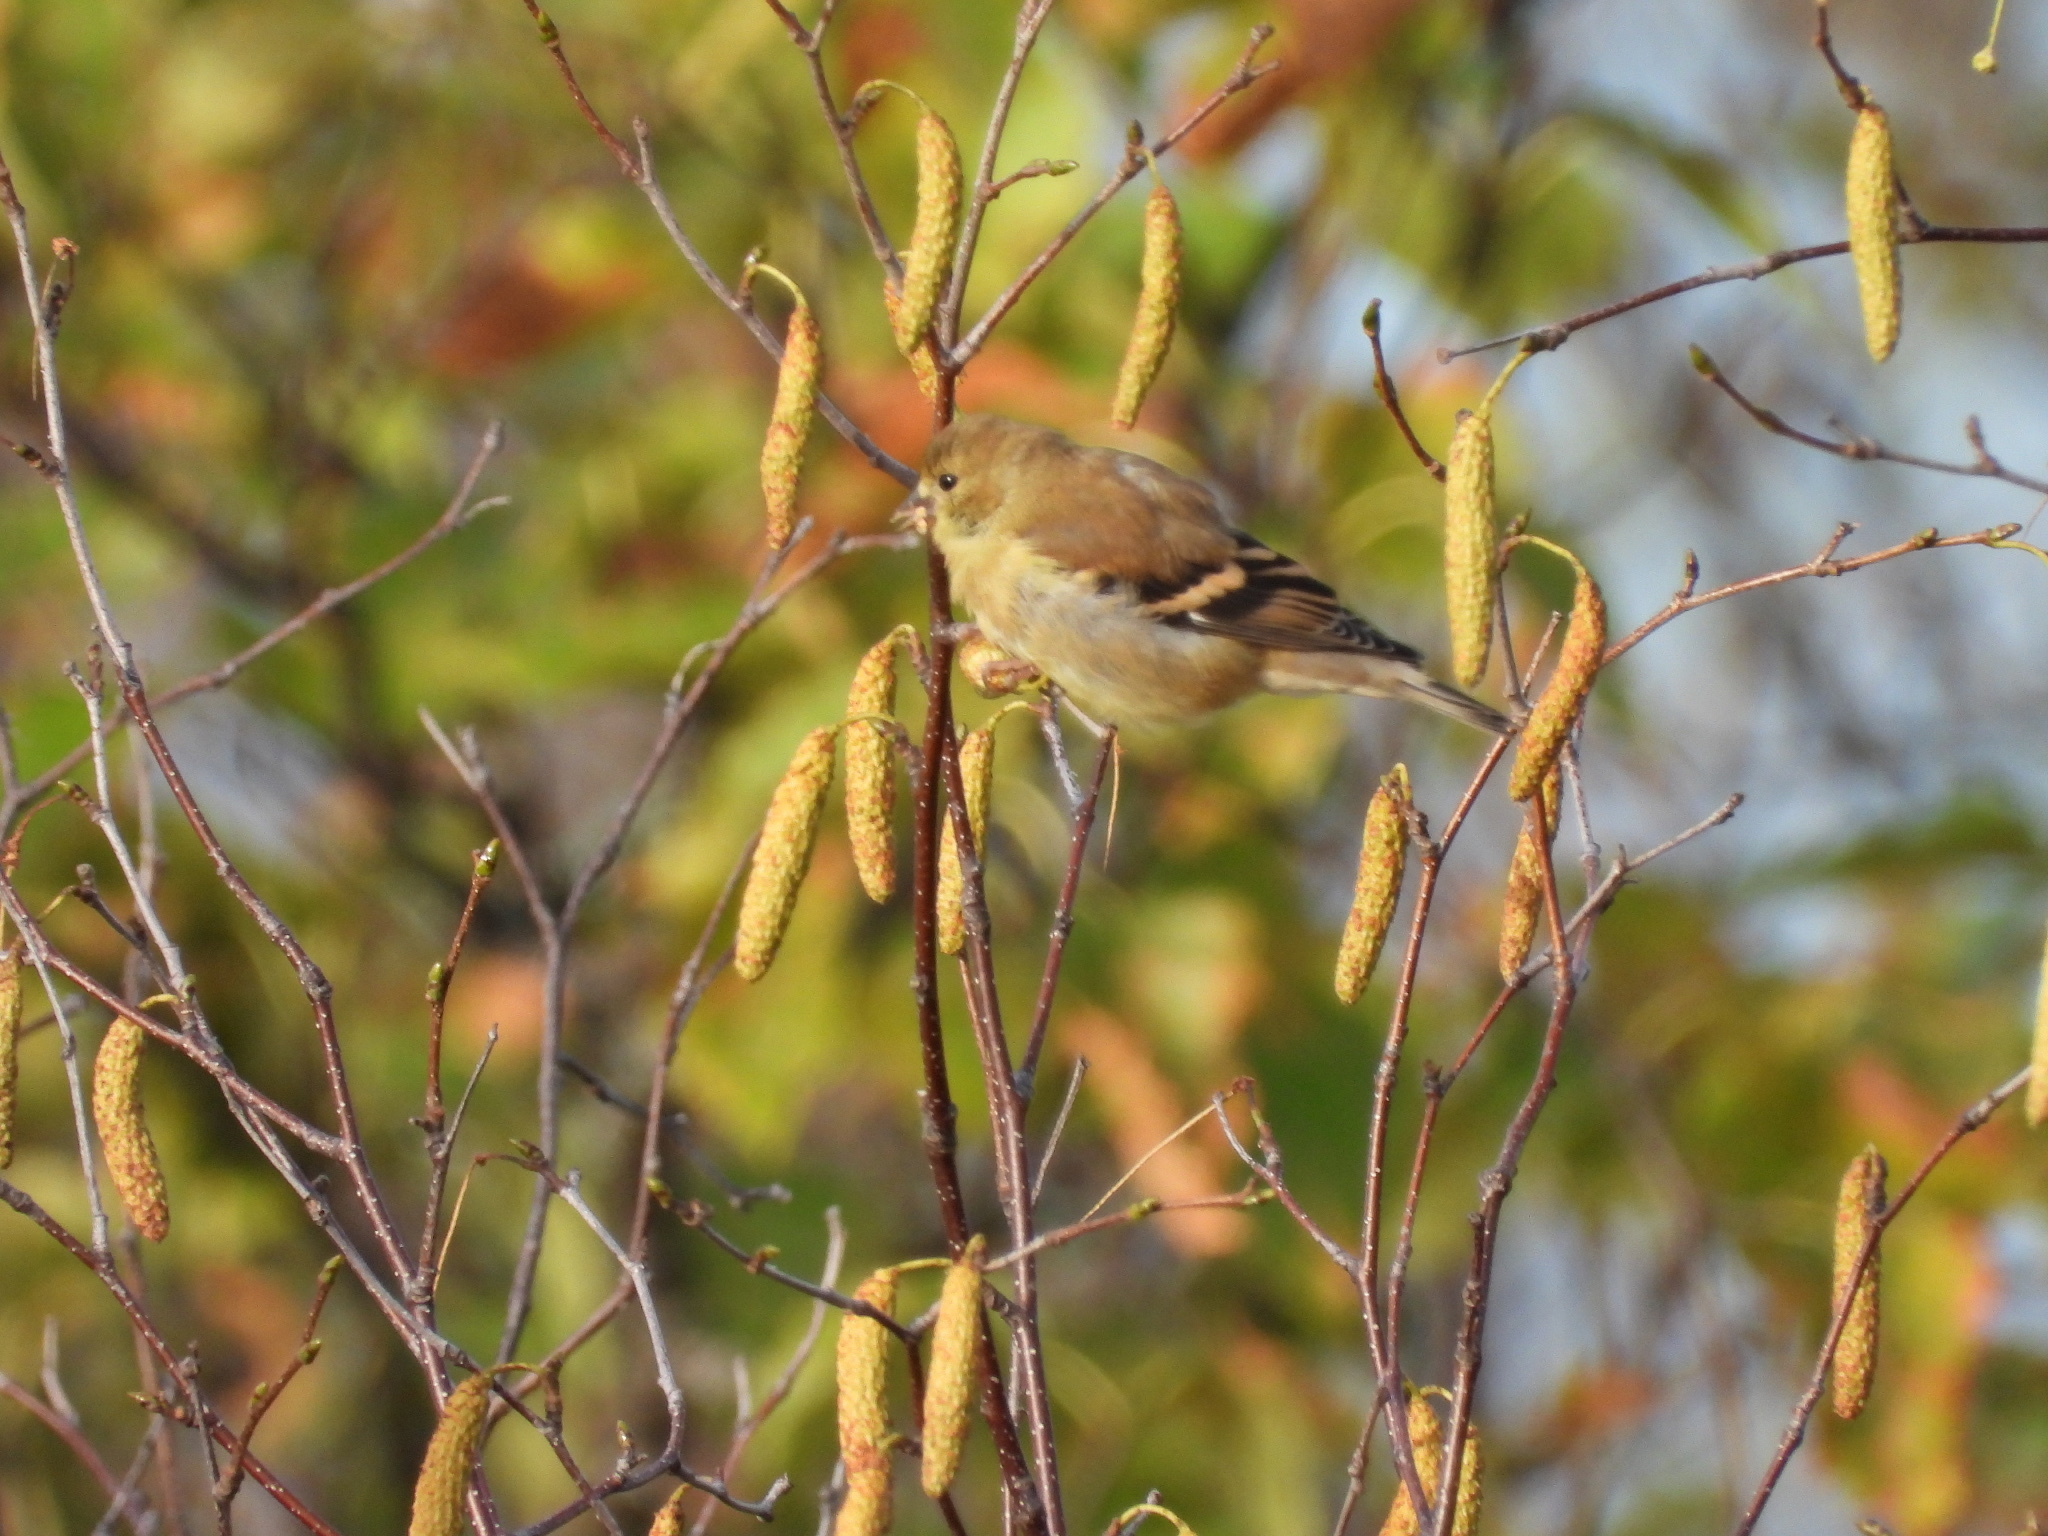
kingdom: Animalia
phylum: Chordata
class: Aves
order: Passeriformes
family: Fringillidae
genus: Spinus
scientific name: Spinus tristis
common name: American goldfinch
